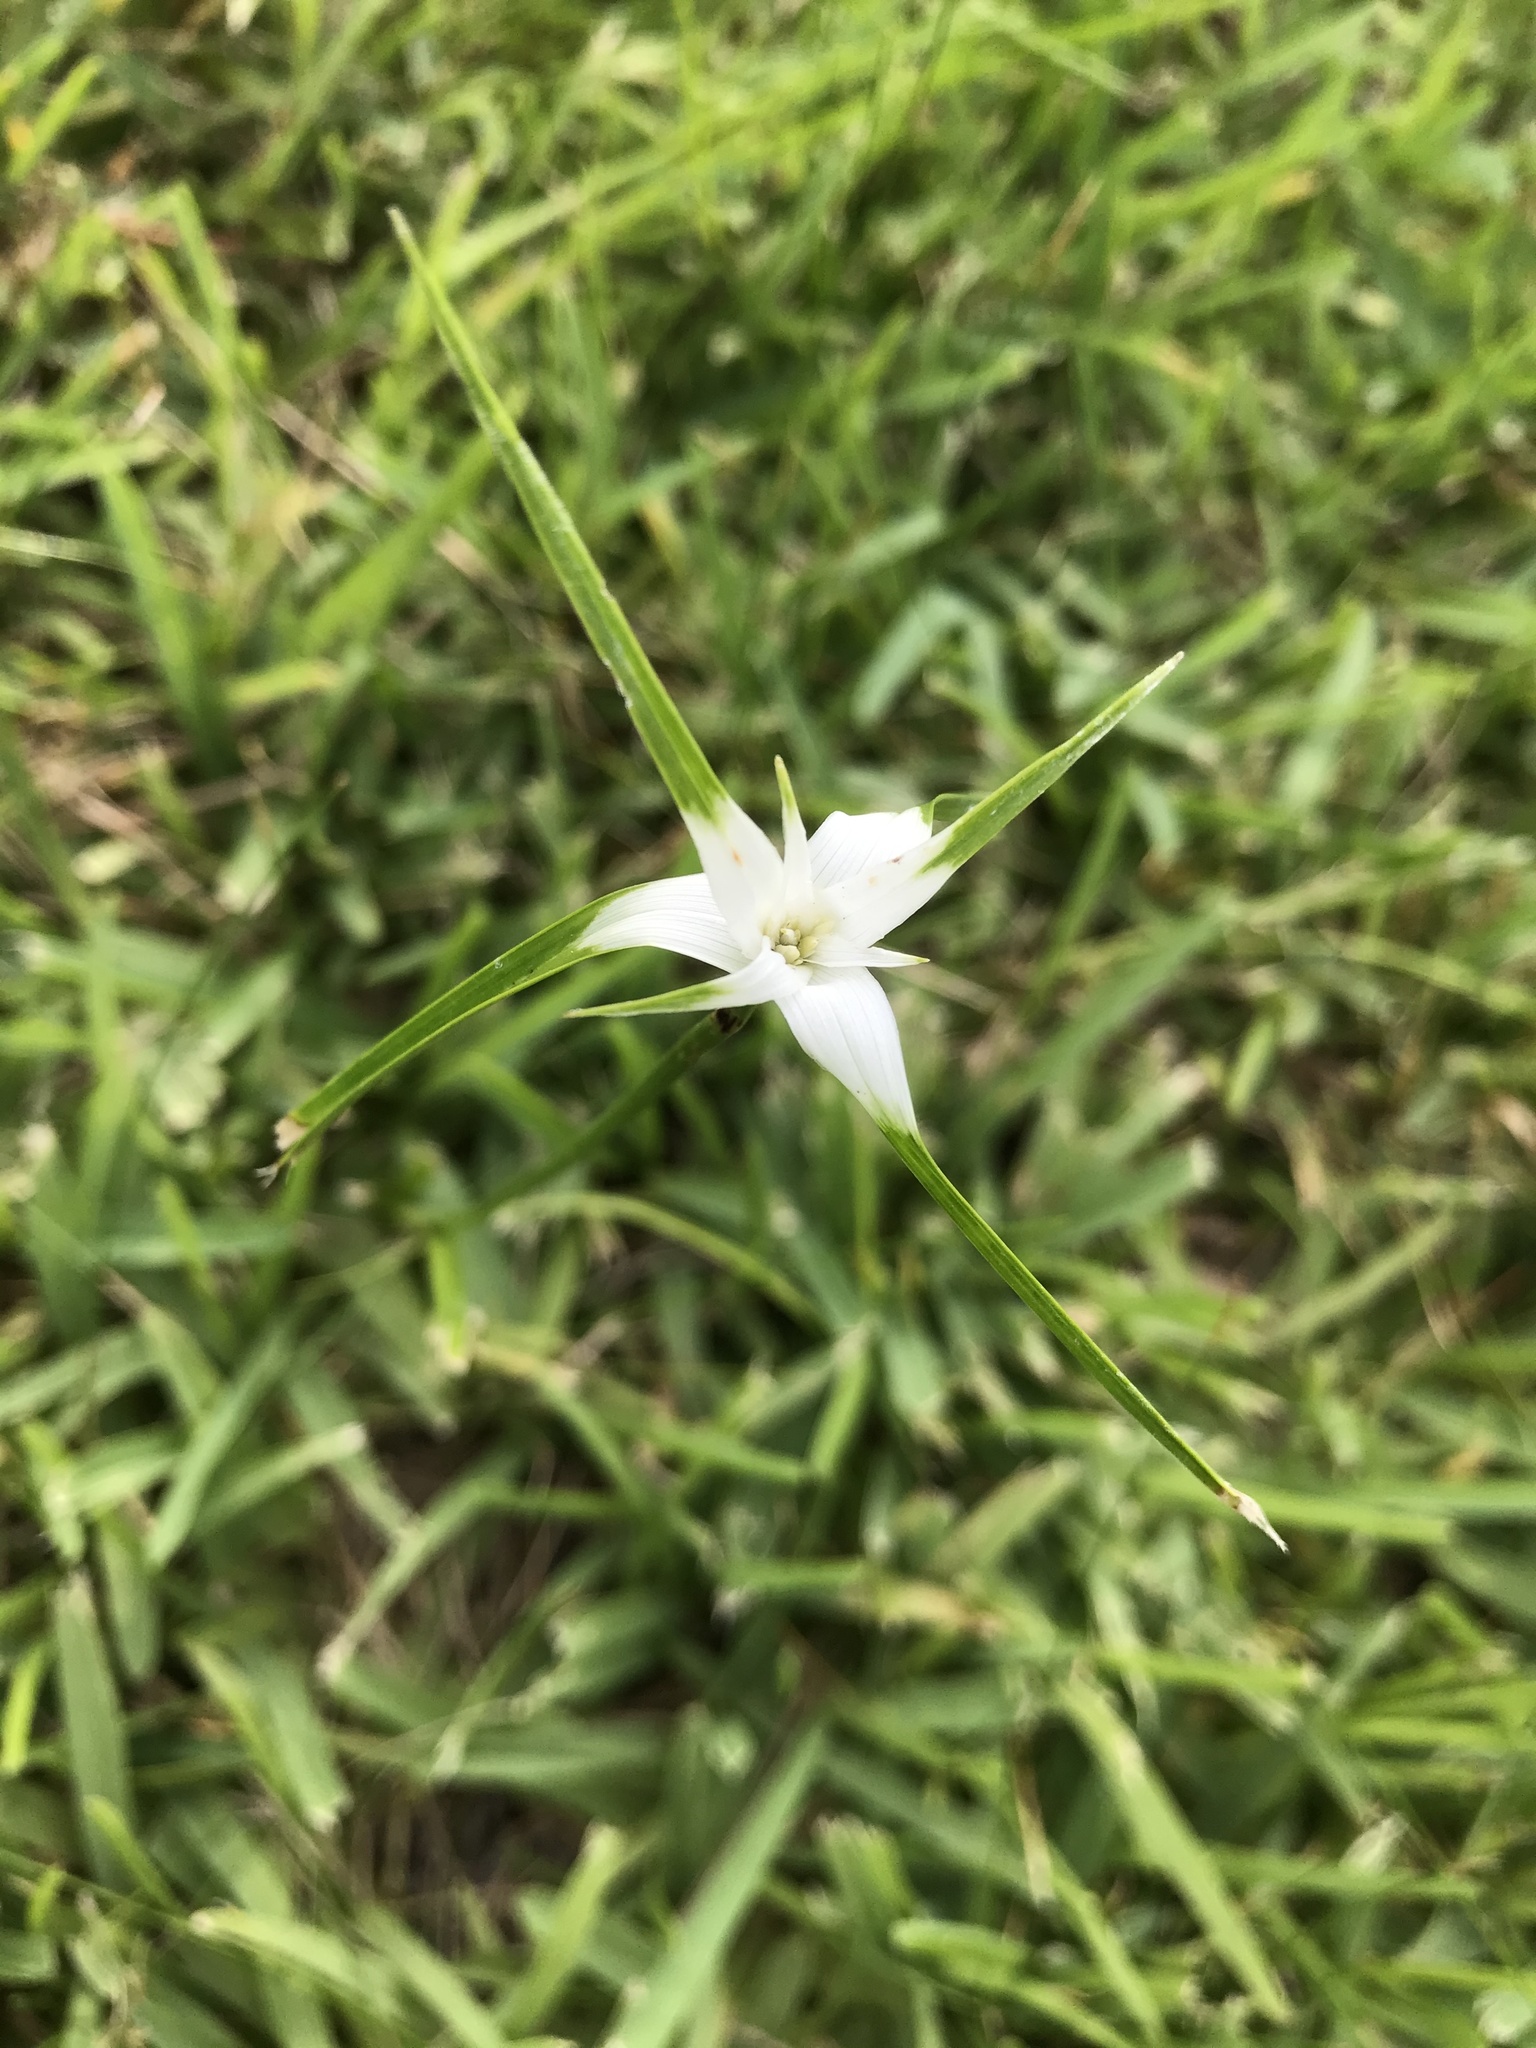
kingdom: Plantae
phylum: Tracheophyta
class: Liliopsida
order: Poales
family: Cyperaceae
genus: Rhynchospora
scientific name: Rhynchospora colorata
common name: Star sedge
